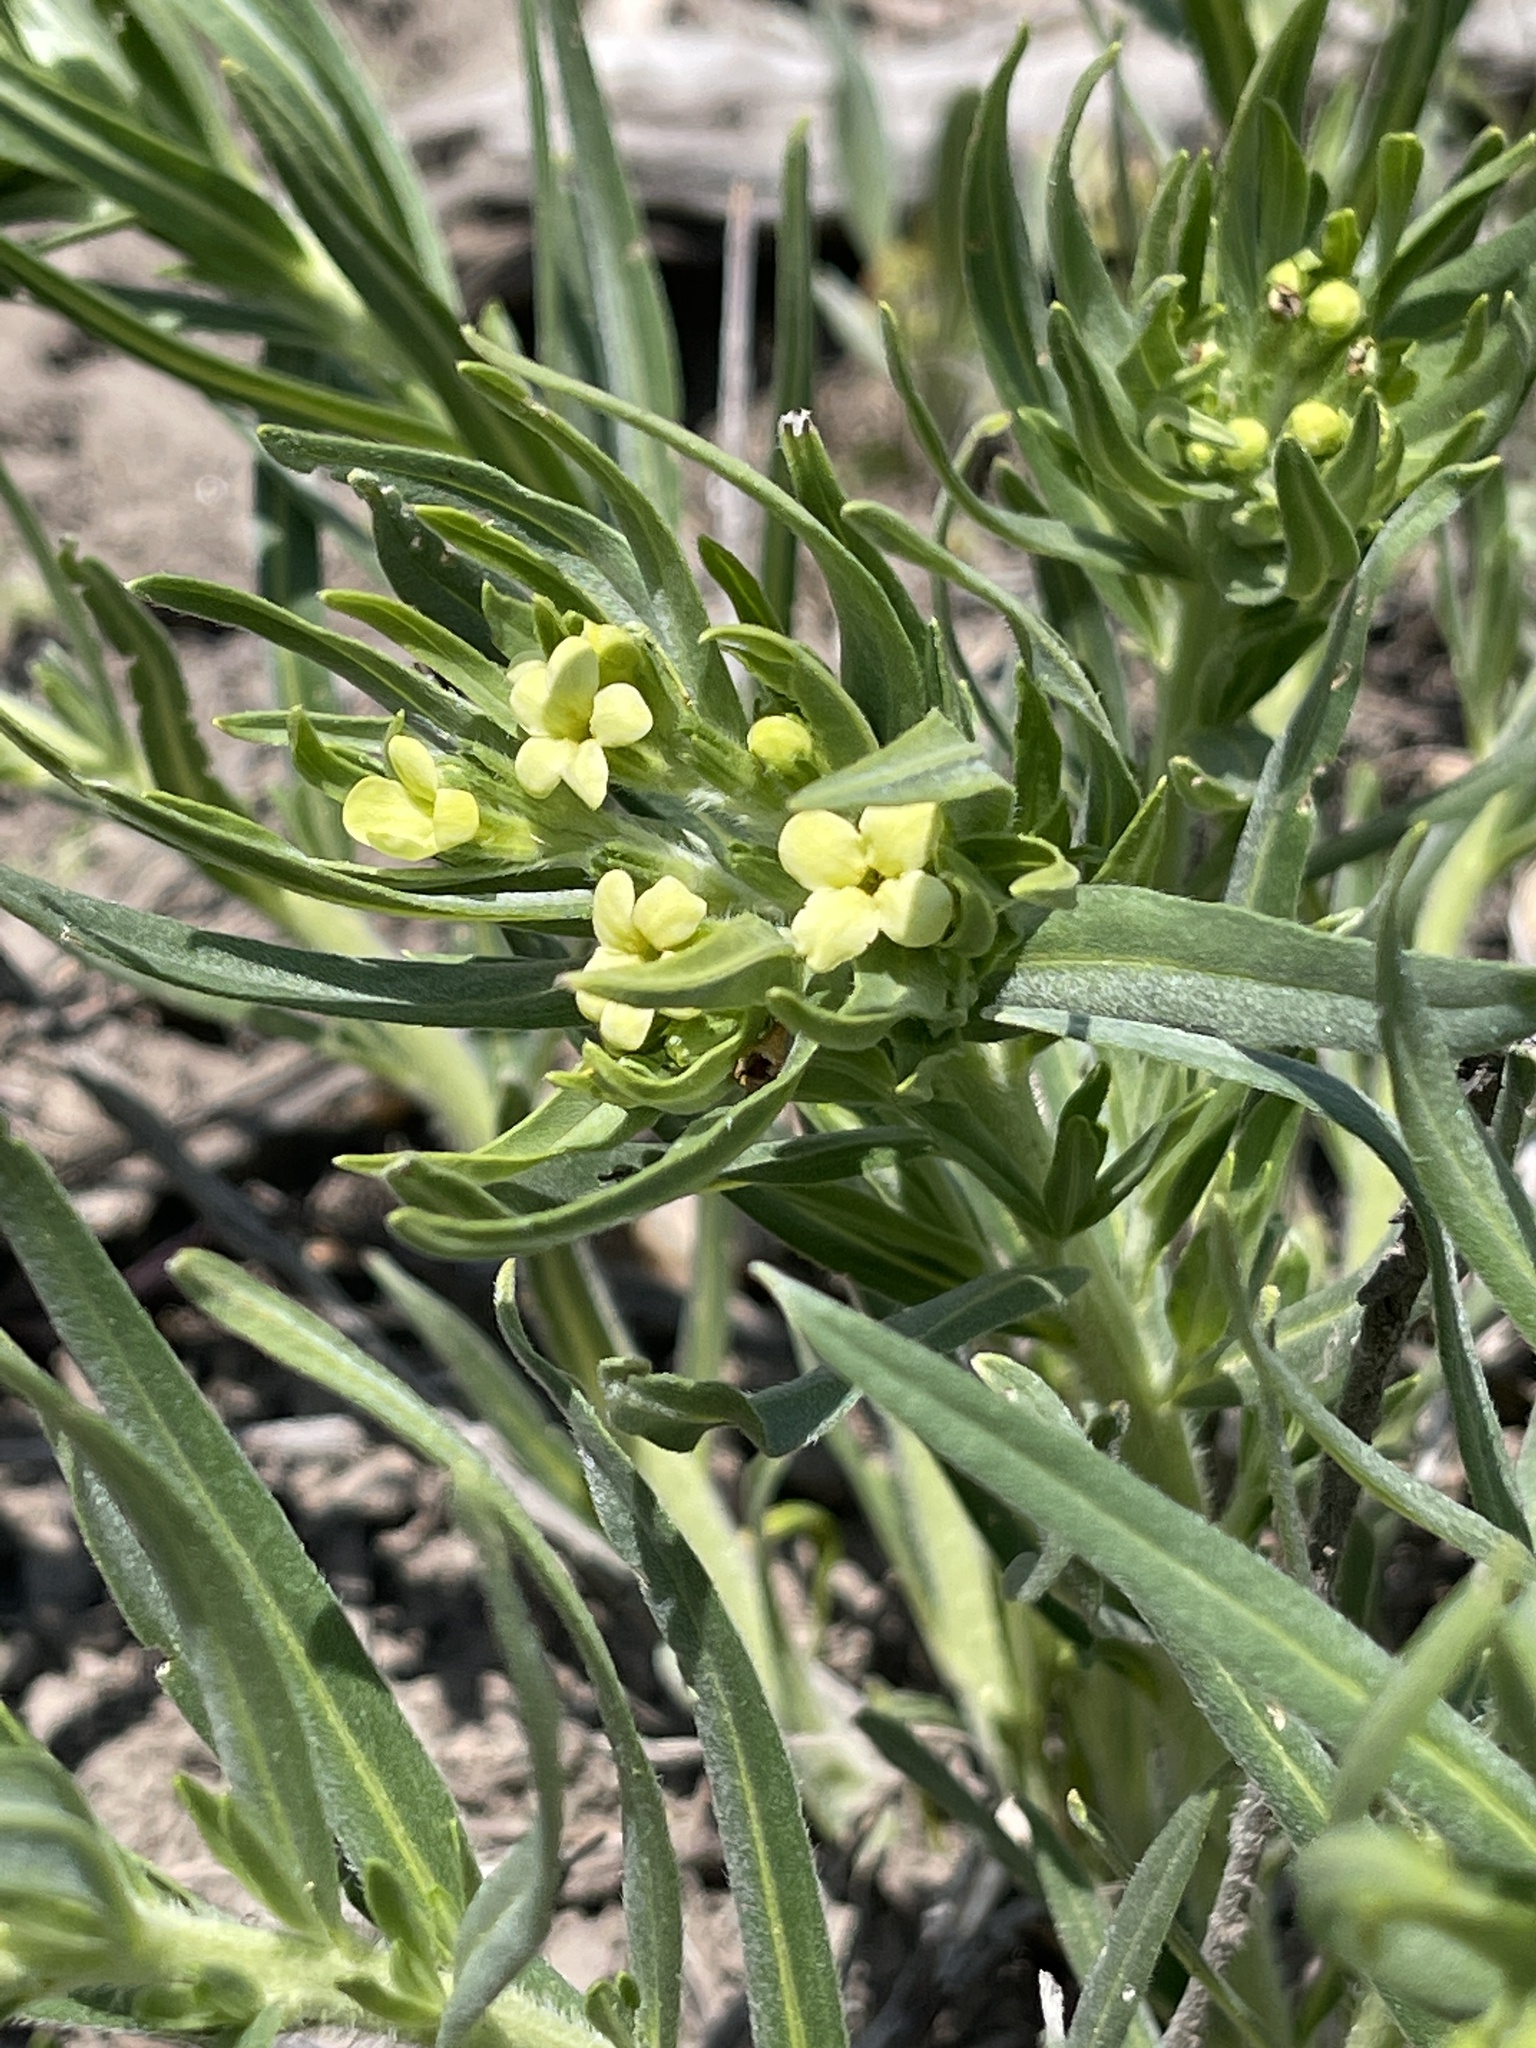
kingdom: Plantae
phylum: Tracheophyta
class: Magnoliopsida
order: Boraginales
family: Boraginaceae
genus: Lithospermum
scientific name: Lithospermum ruderale
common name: Western gromwell
